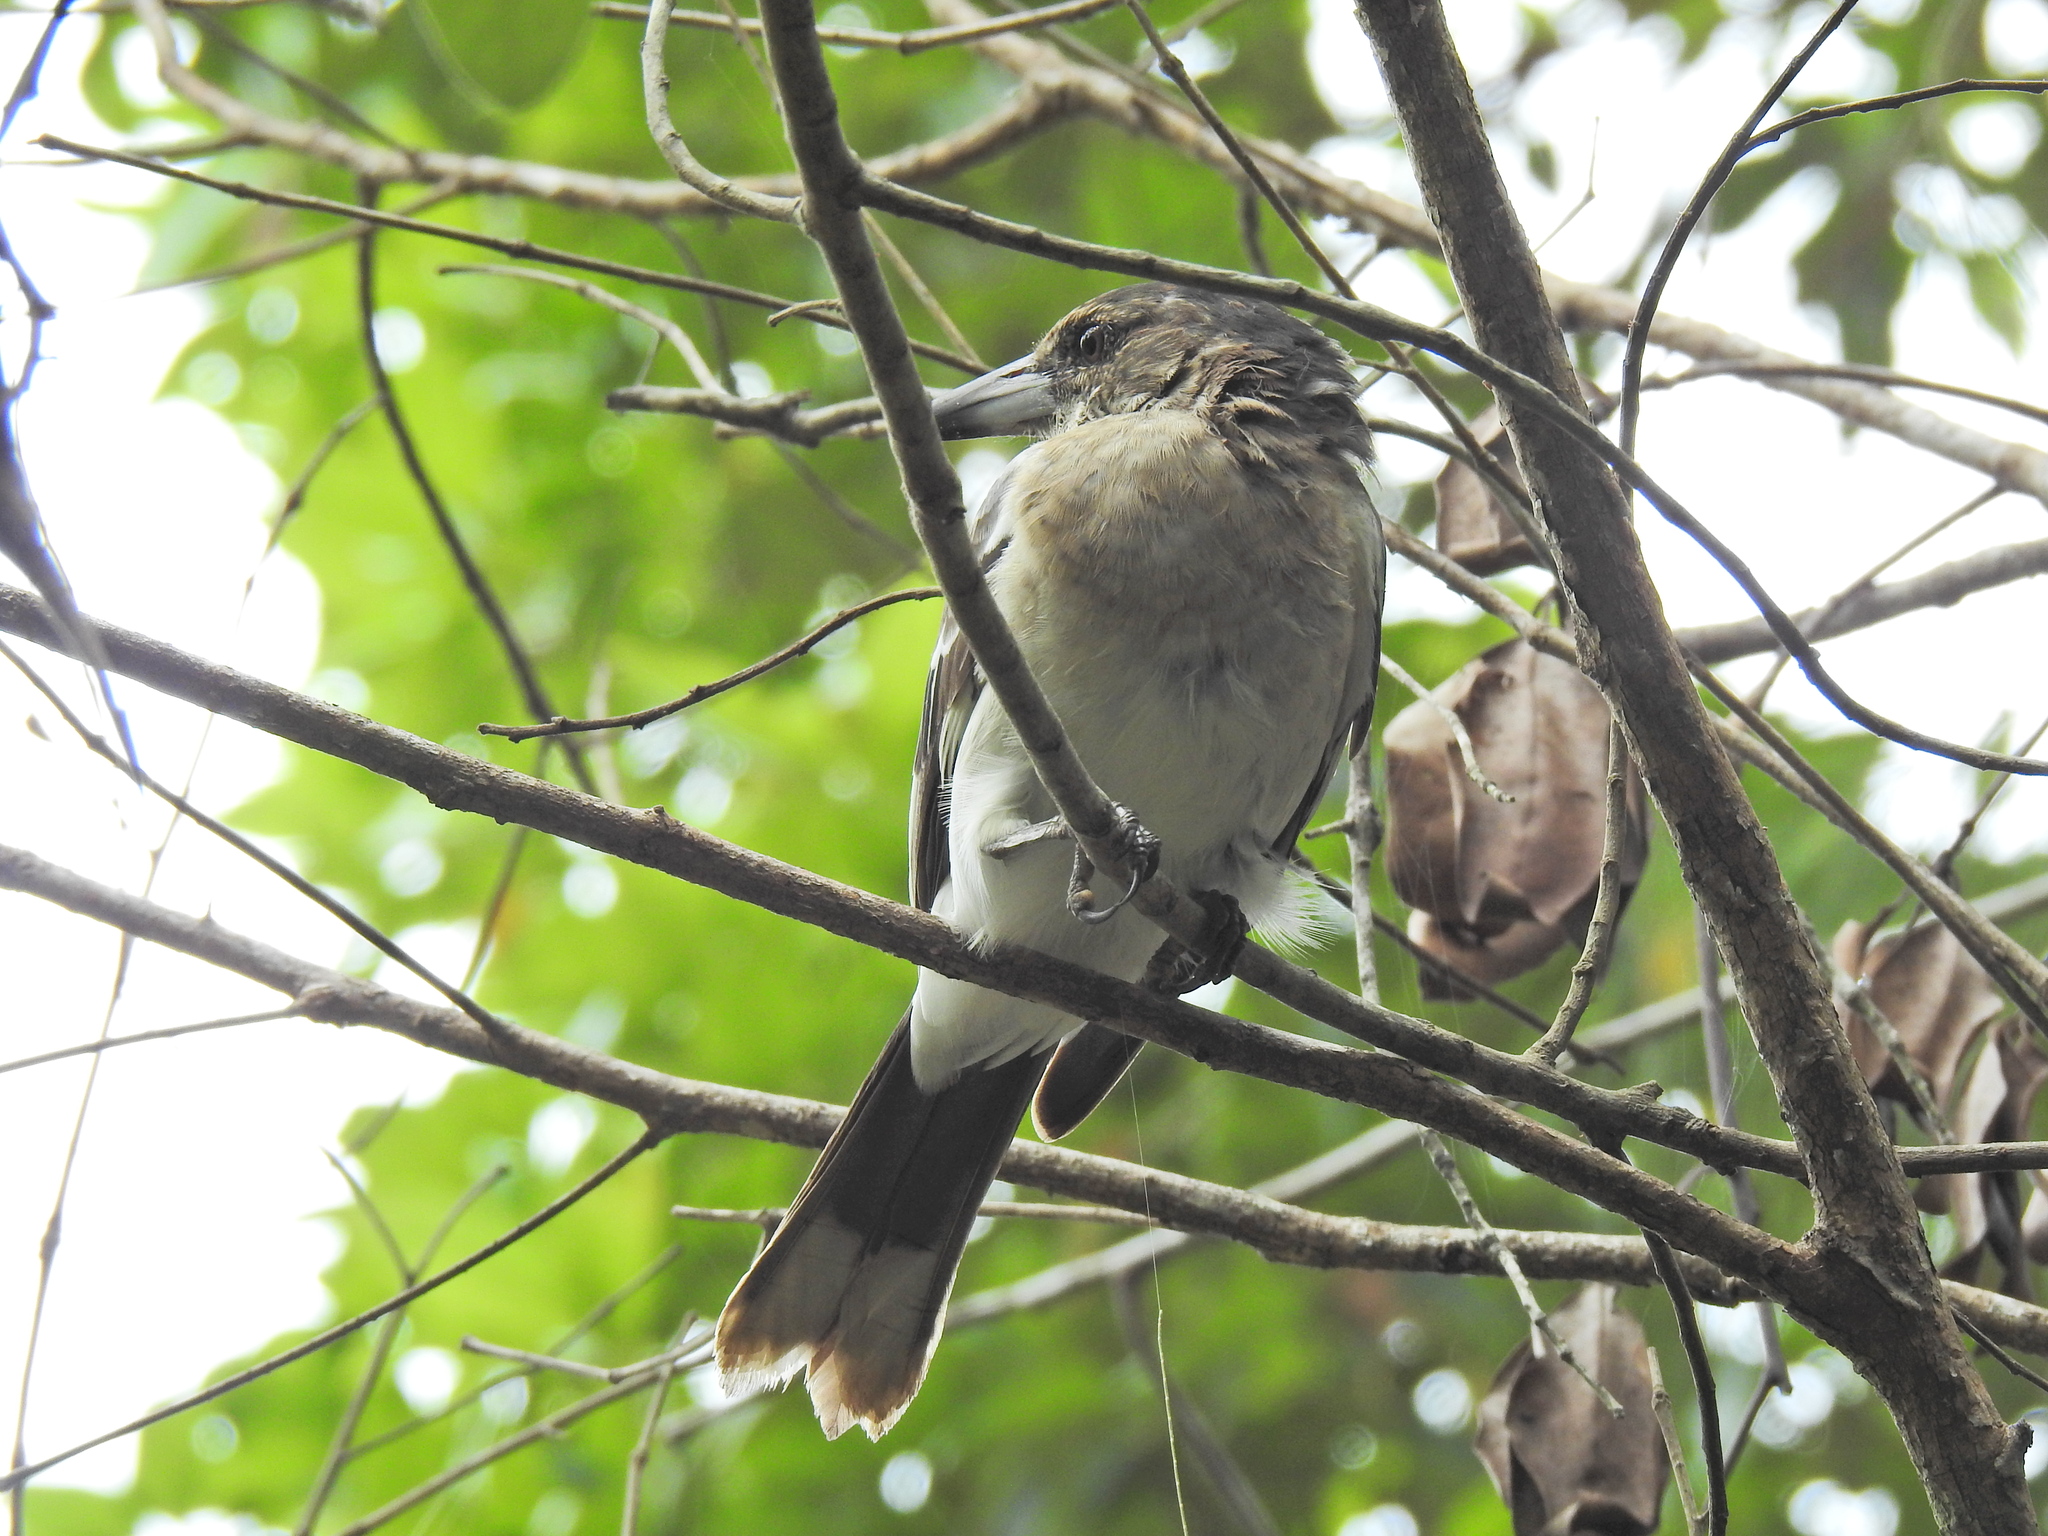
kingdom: Animalia
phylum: Chordata
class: Aves
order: Passeriformes
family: Cracticidae
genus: Cracticus
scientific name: Cracticus torquatus
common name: Grey butcherbird
